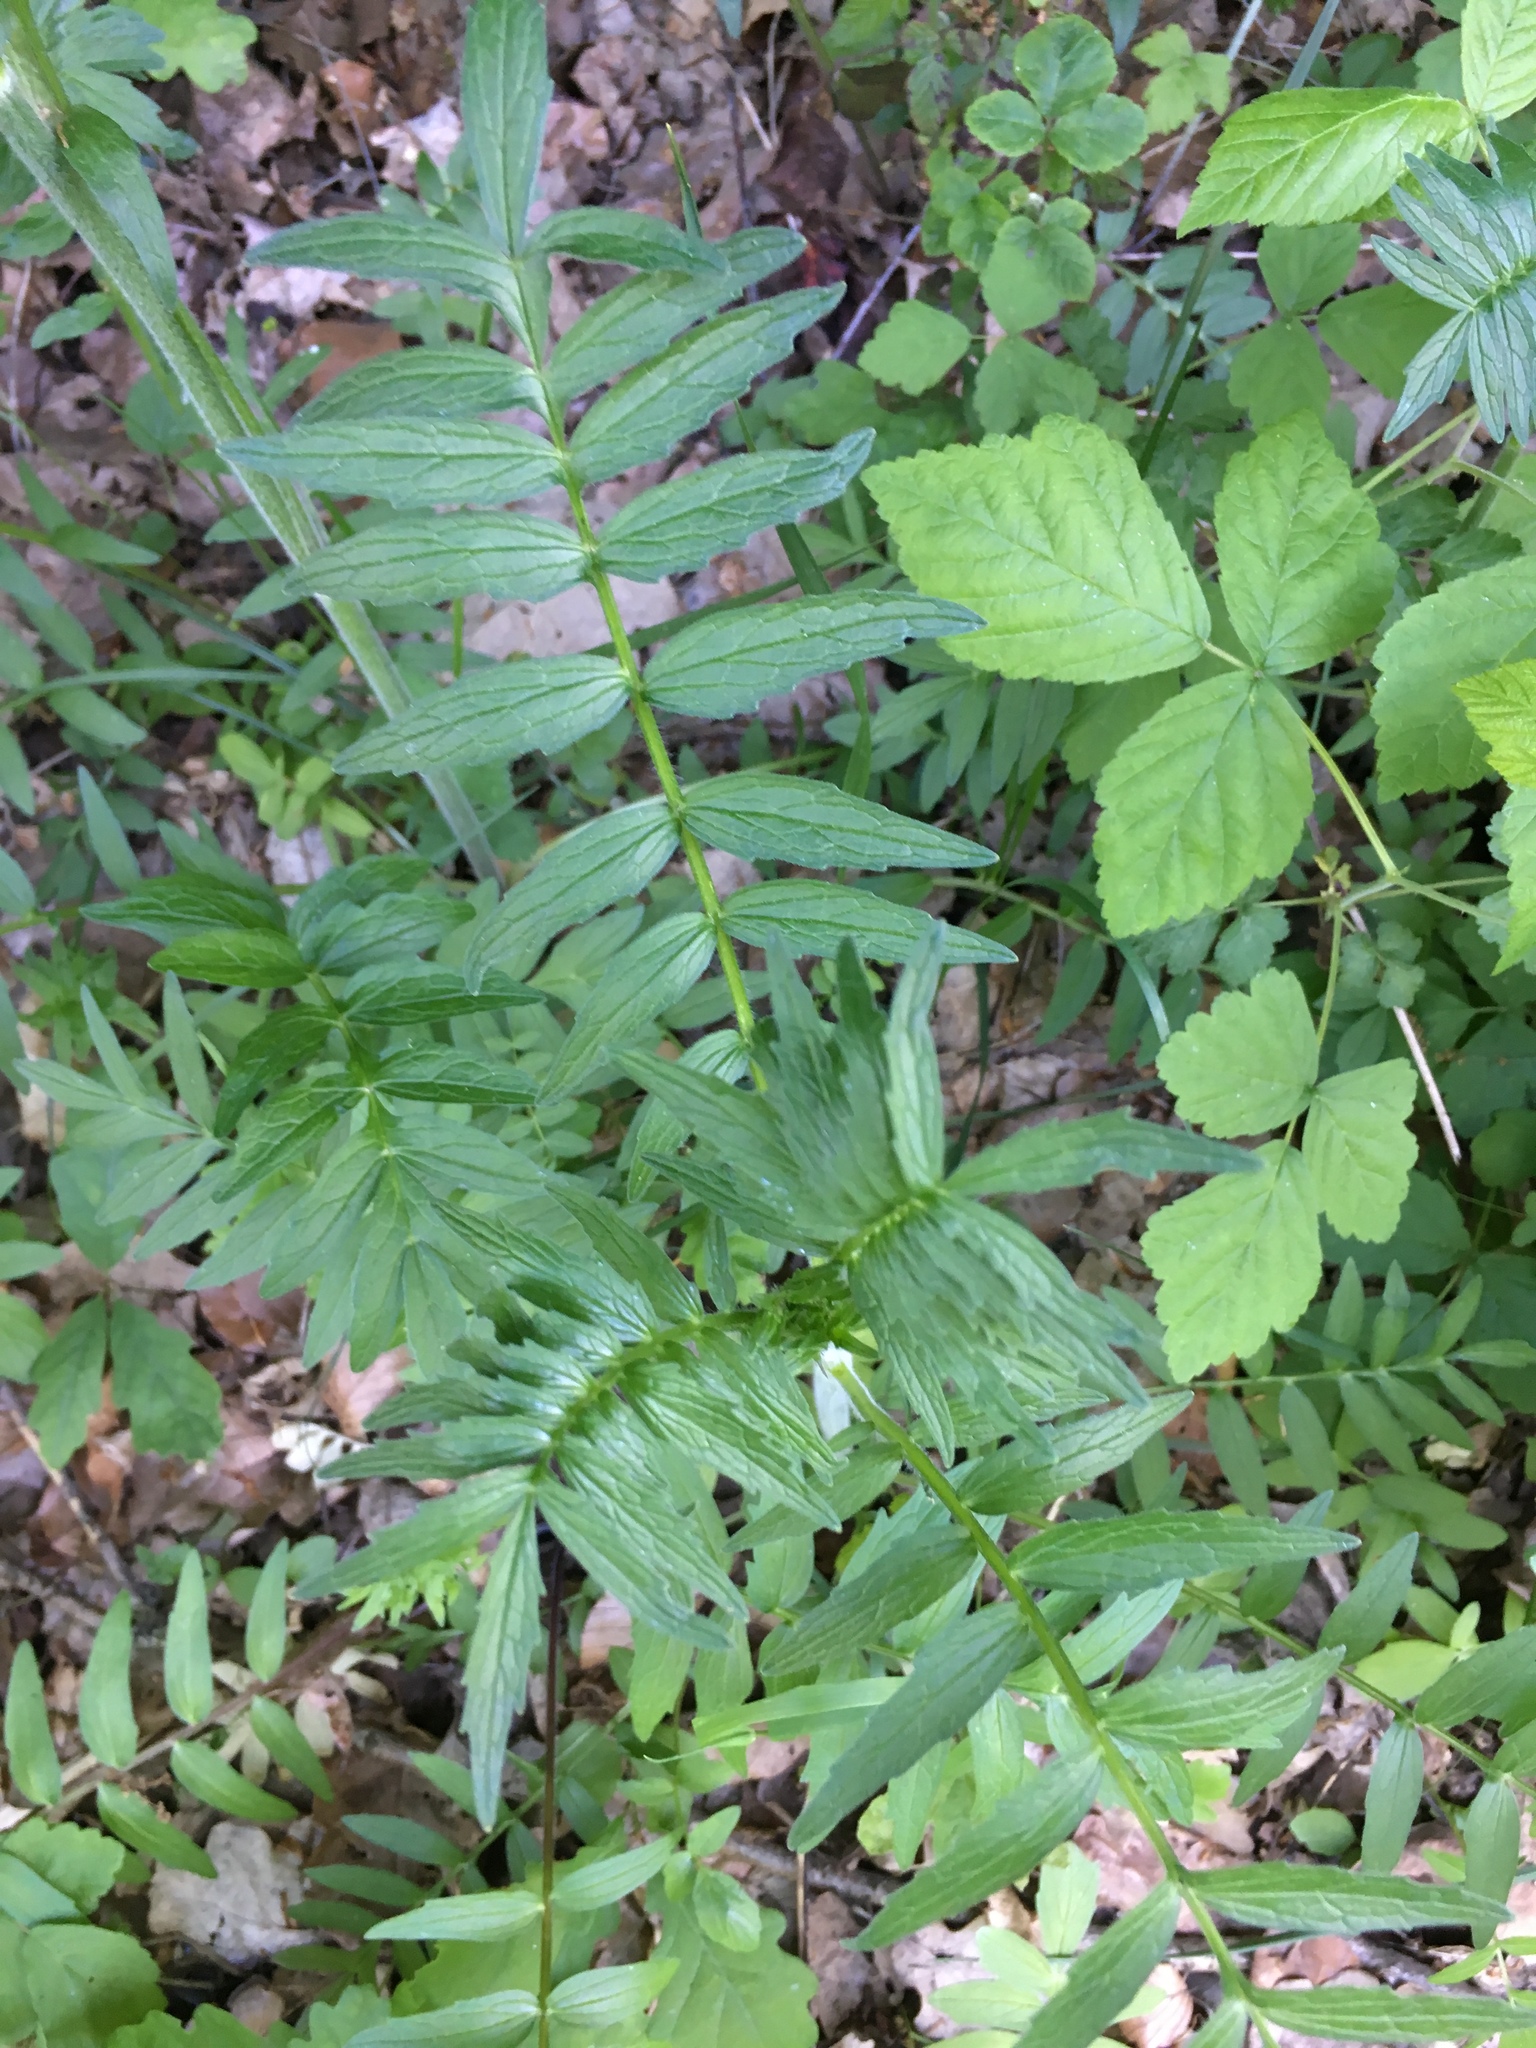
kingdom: Plantae
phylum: Tracheophyta
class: Magnoliopsida
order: Dipsacales
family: Caprifoliaceae
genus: Valeriana
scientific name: Valeriana officinalis
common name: Common valerian
